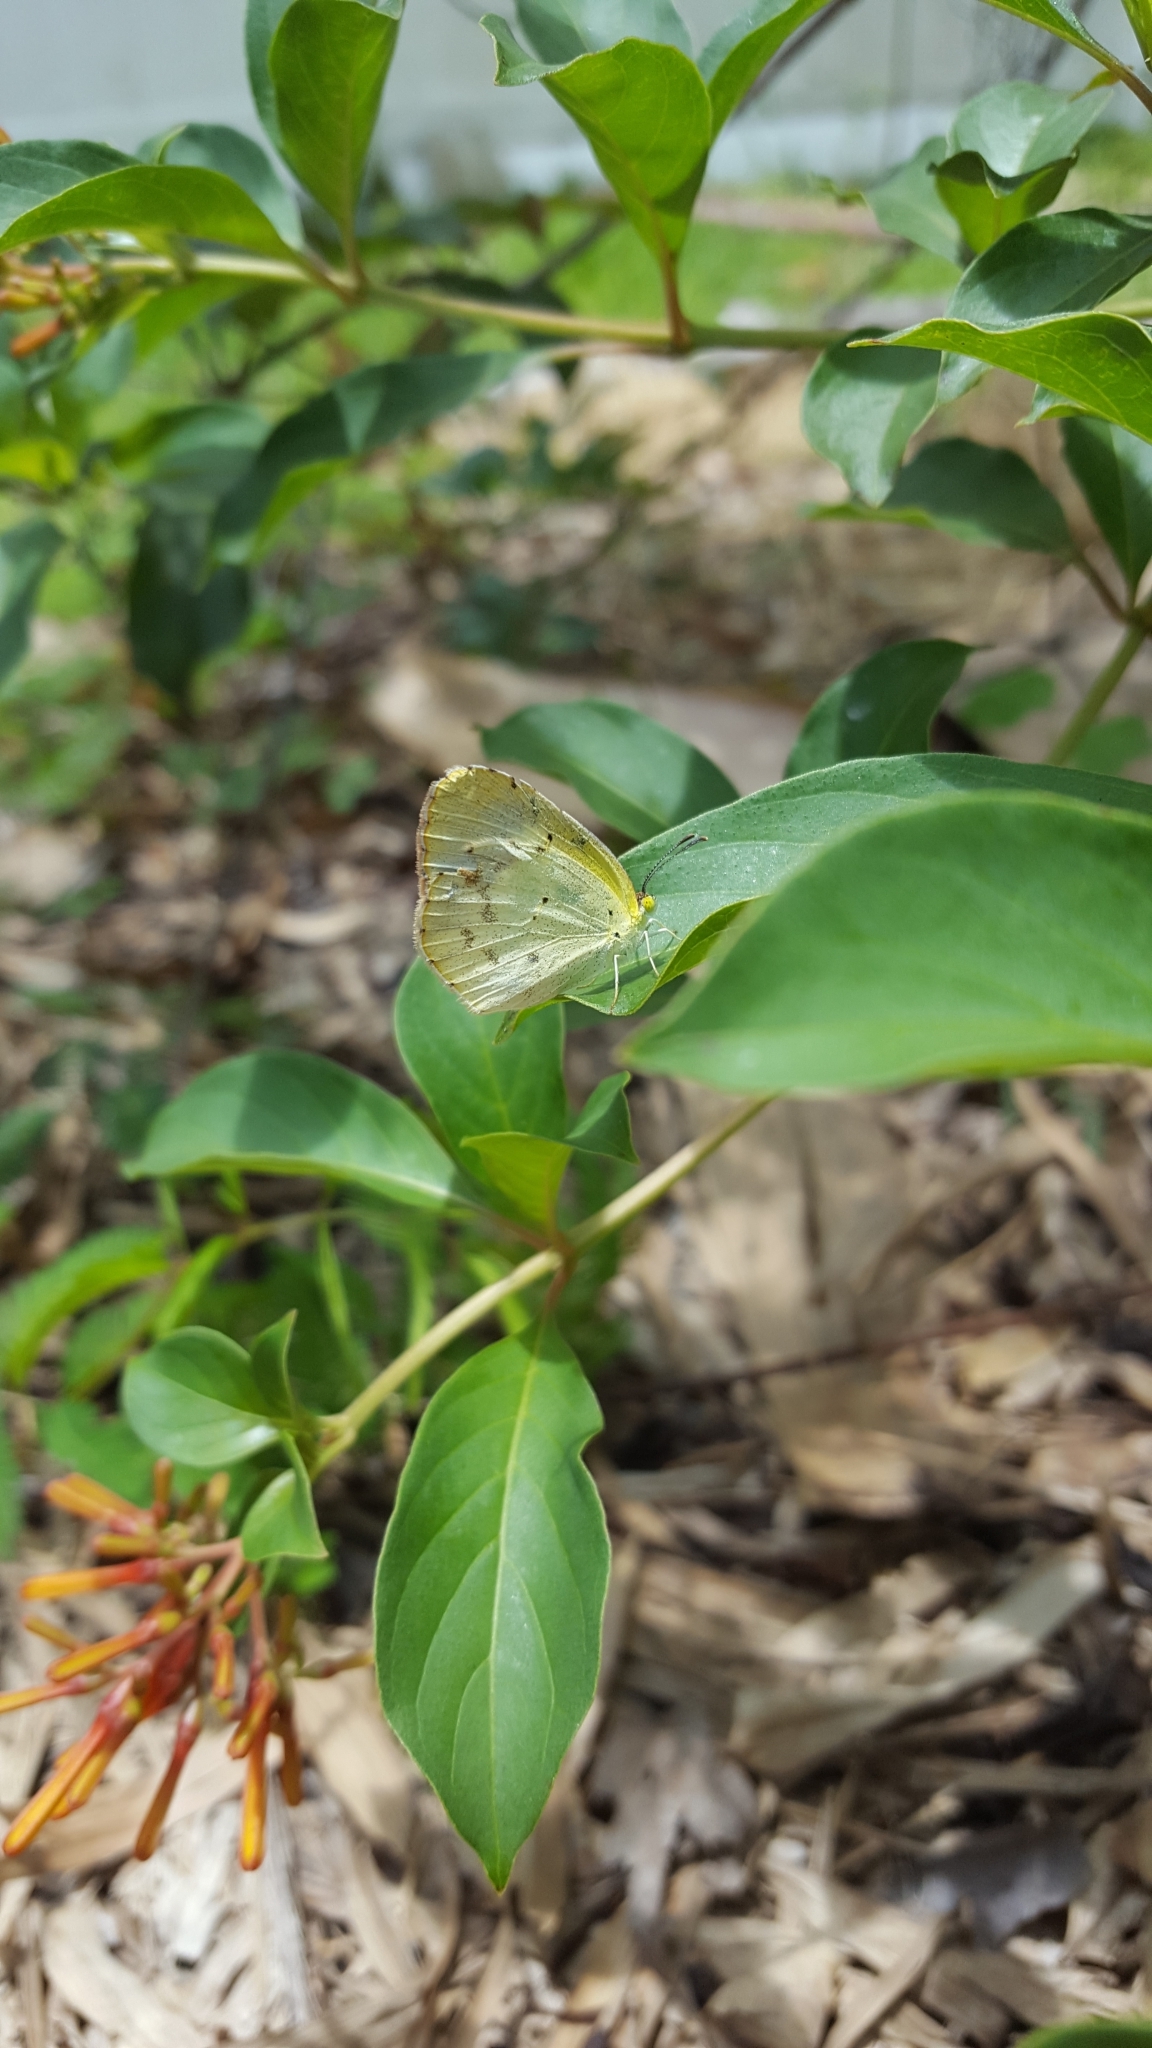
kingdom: Animalia
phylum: Arthropoda
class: Insecta
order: Lepidoptera
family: Pieridae
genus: Pyrisitia
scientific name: Pyrisitia lisa
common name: Little yellow
